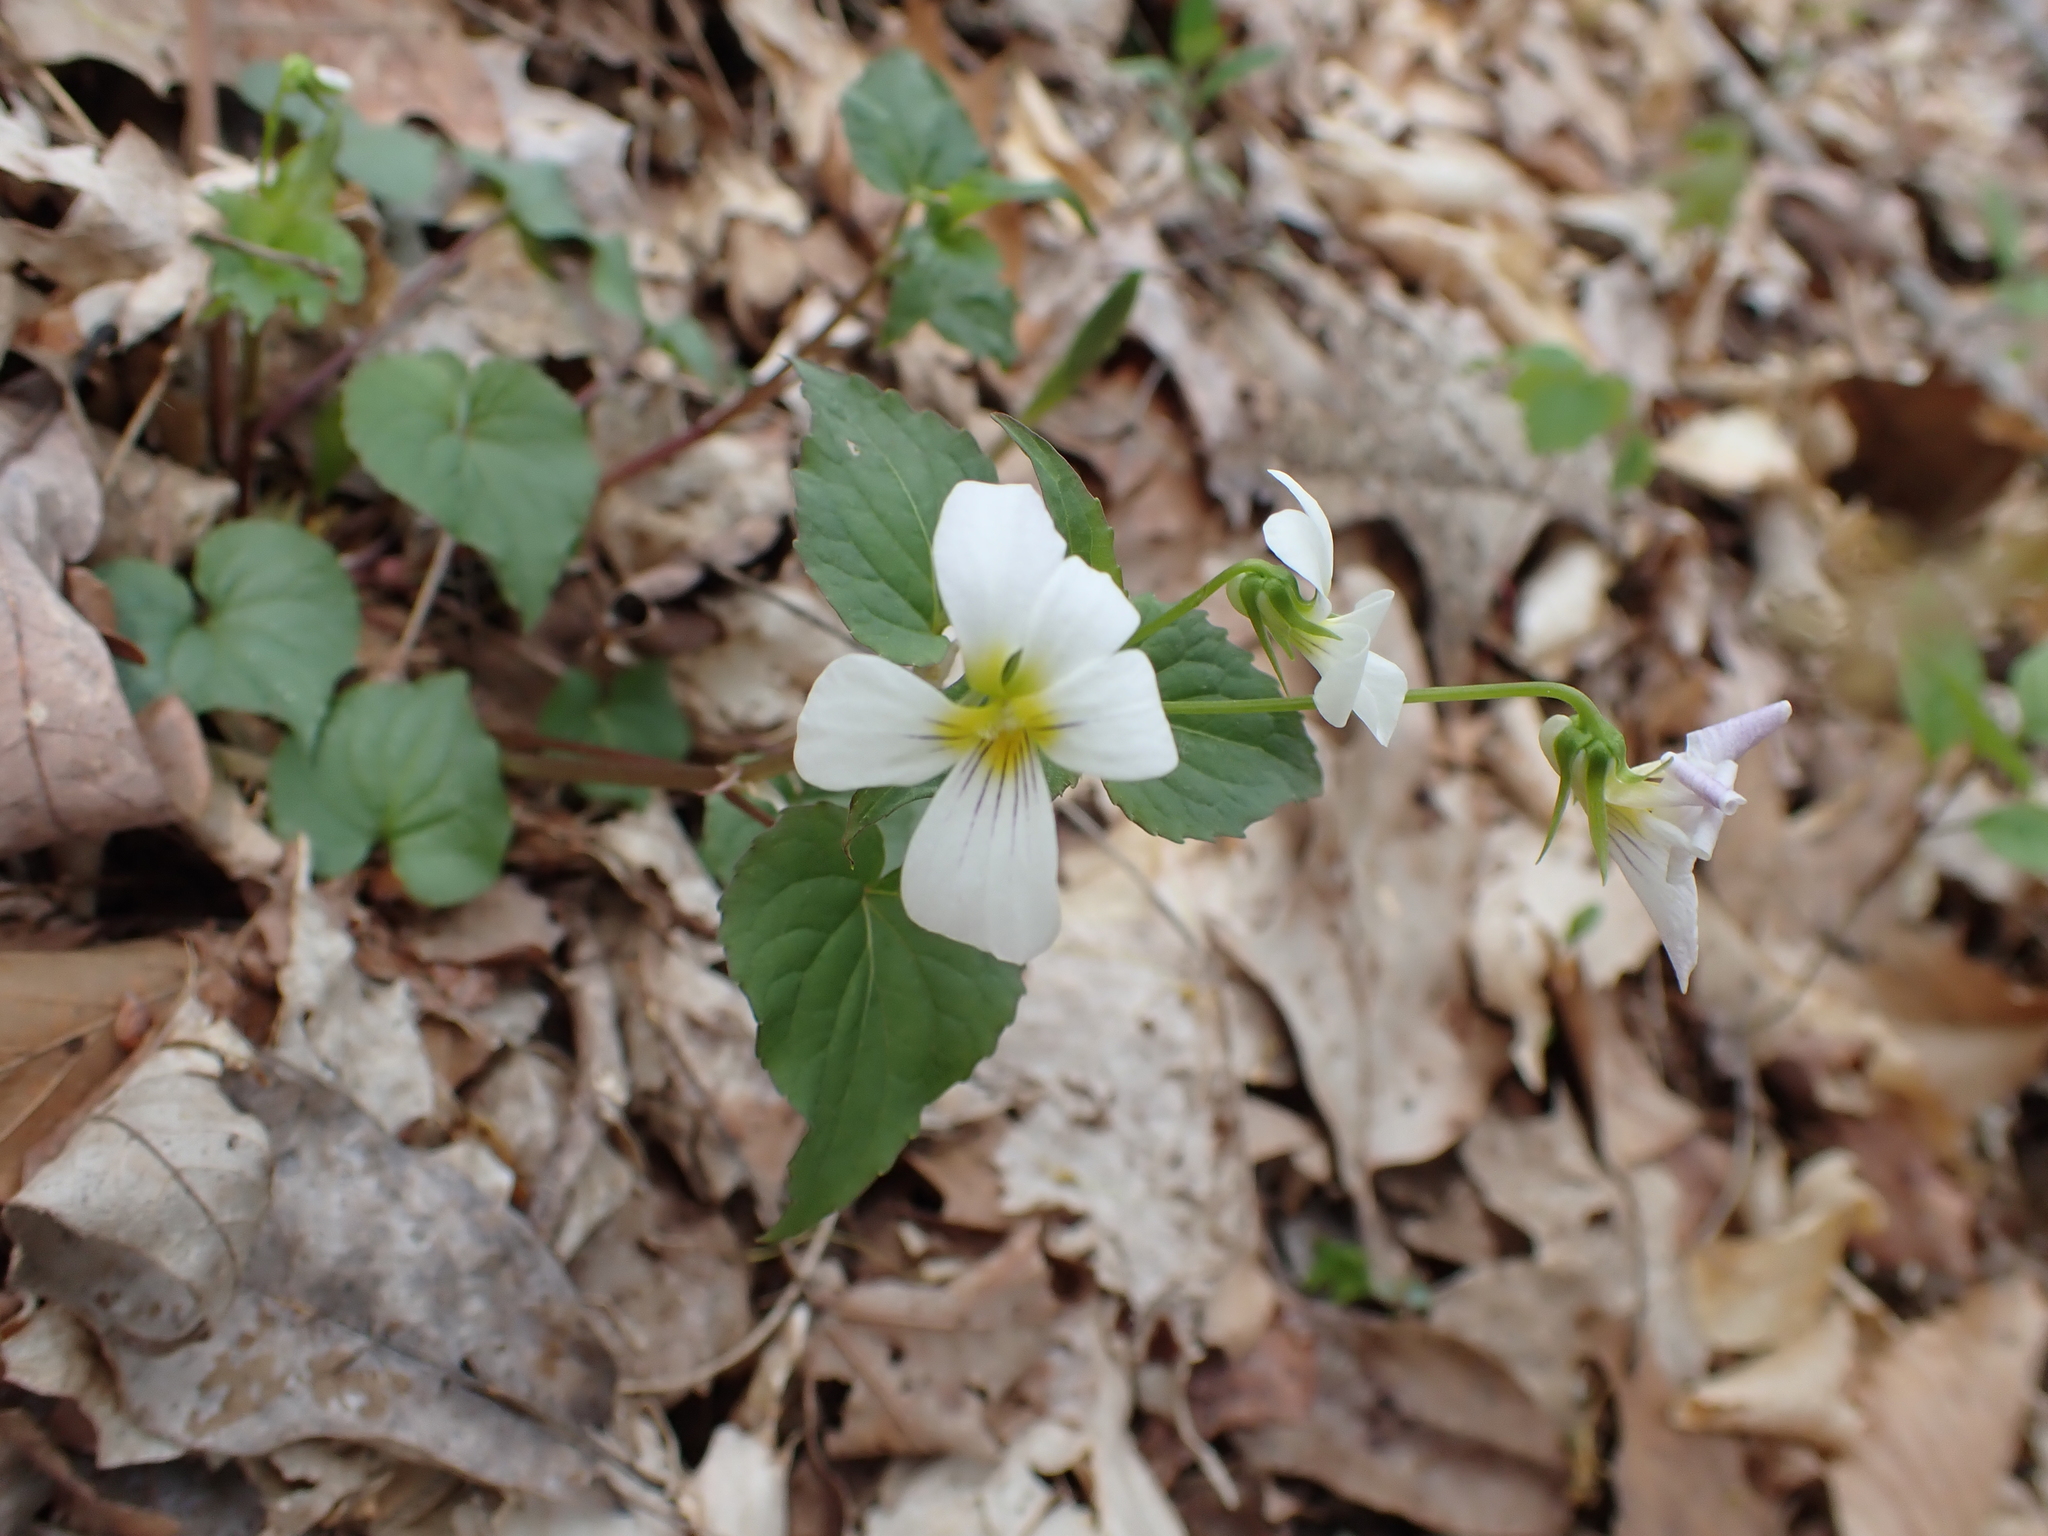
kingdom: Plantae
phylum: Tracheophyta
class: Magnoliopsida
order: Malpighiales
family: Violaceae
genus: Viola
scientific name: Viola canadensis
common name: Canada violet
